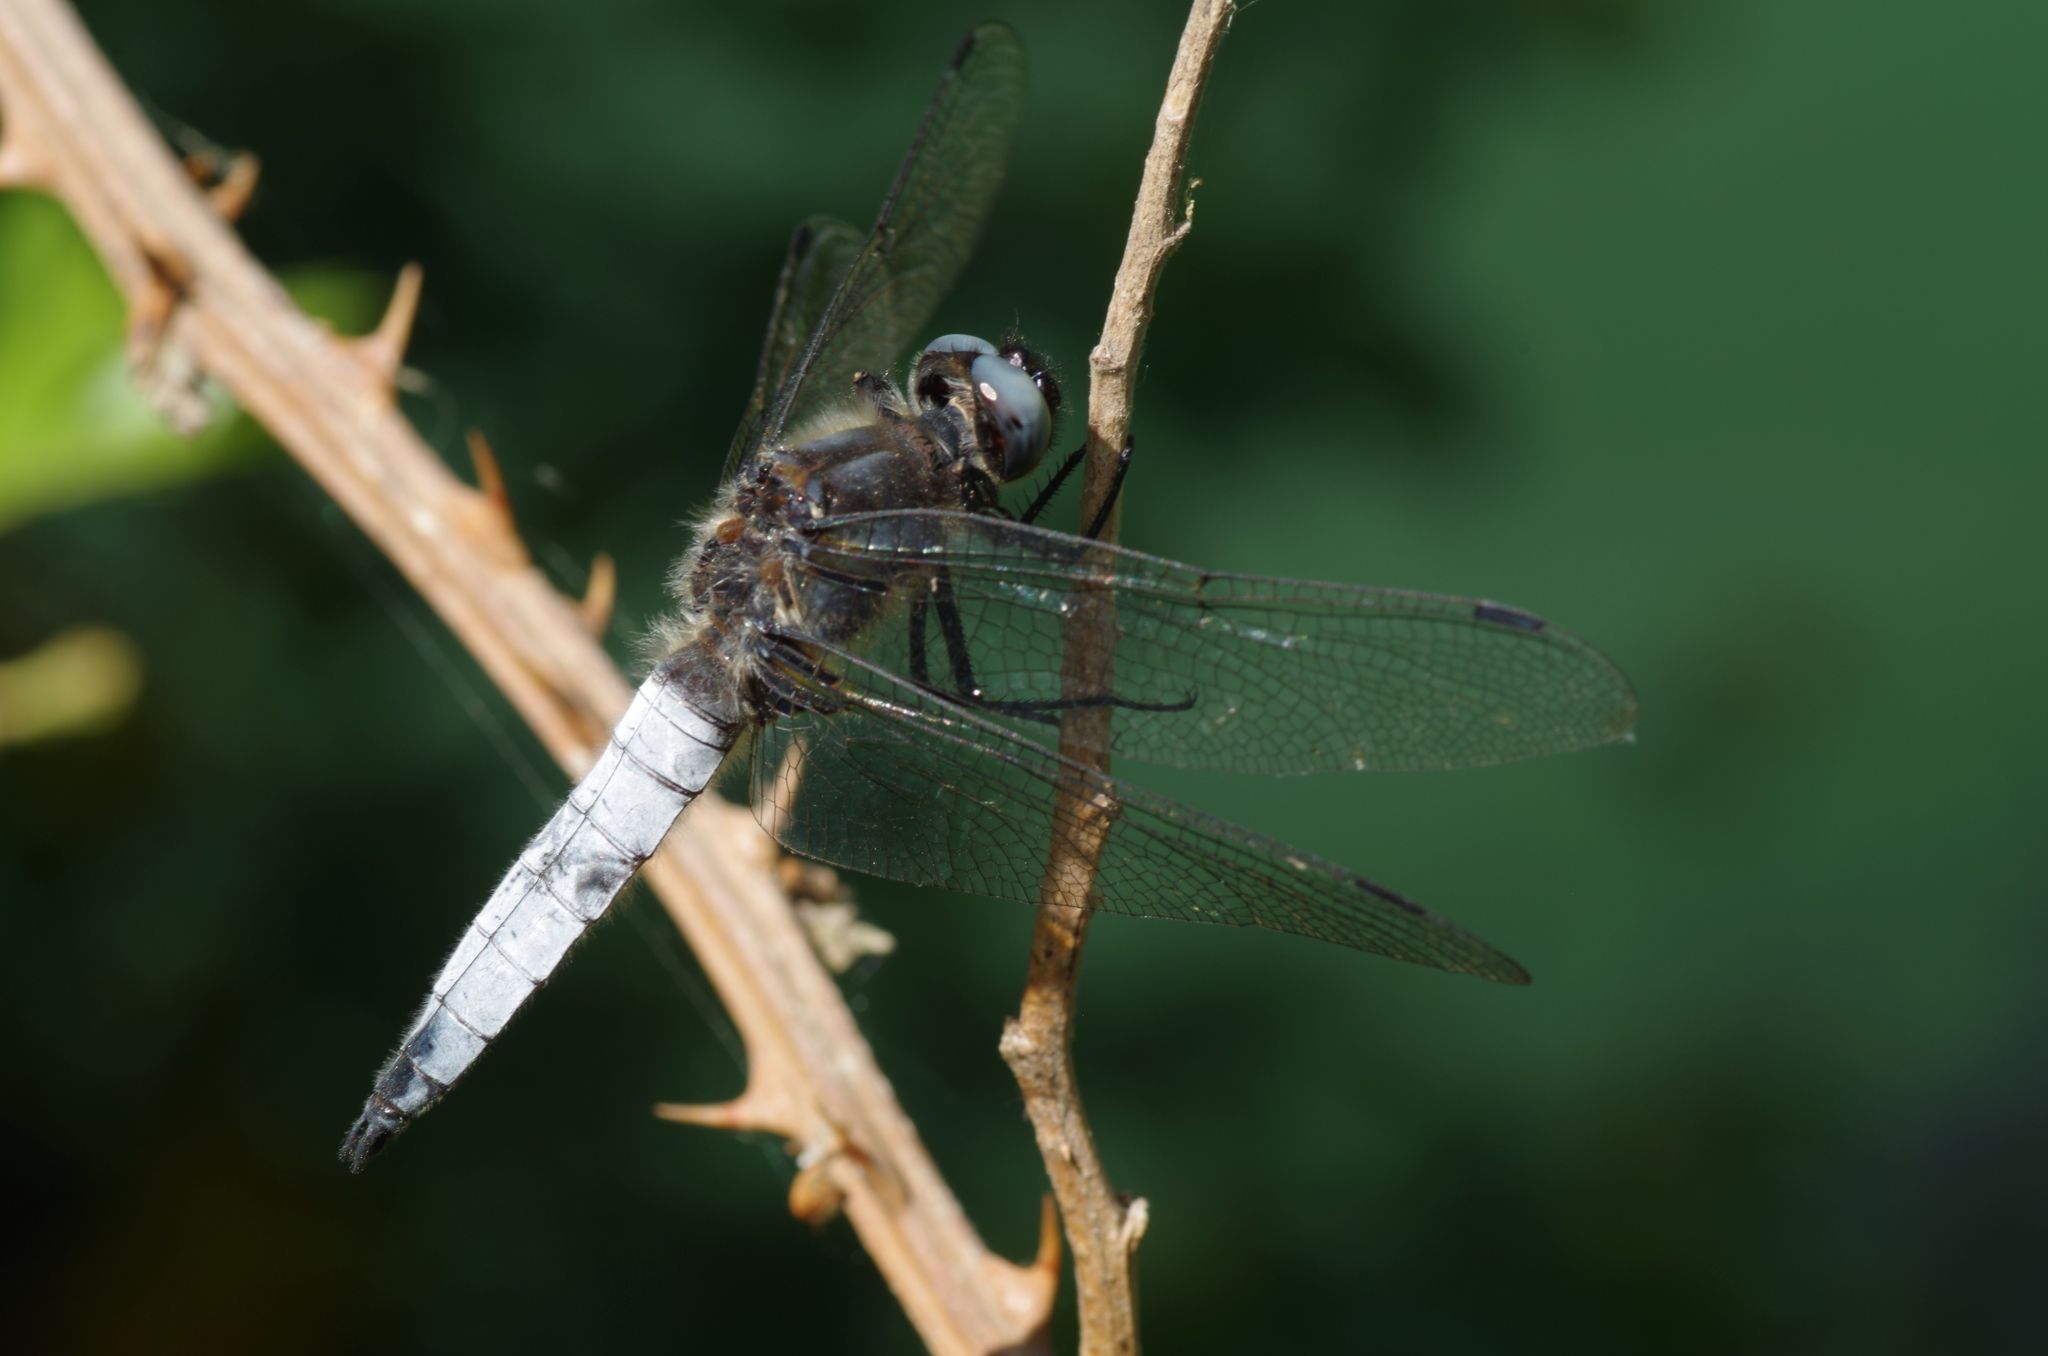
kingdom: Animalia
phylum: Arthropoda
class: Insecta
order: Odonata
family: Libellulidae
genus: Libellula
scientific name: Libellula fulva
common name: Blue chaser
